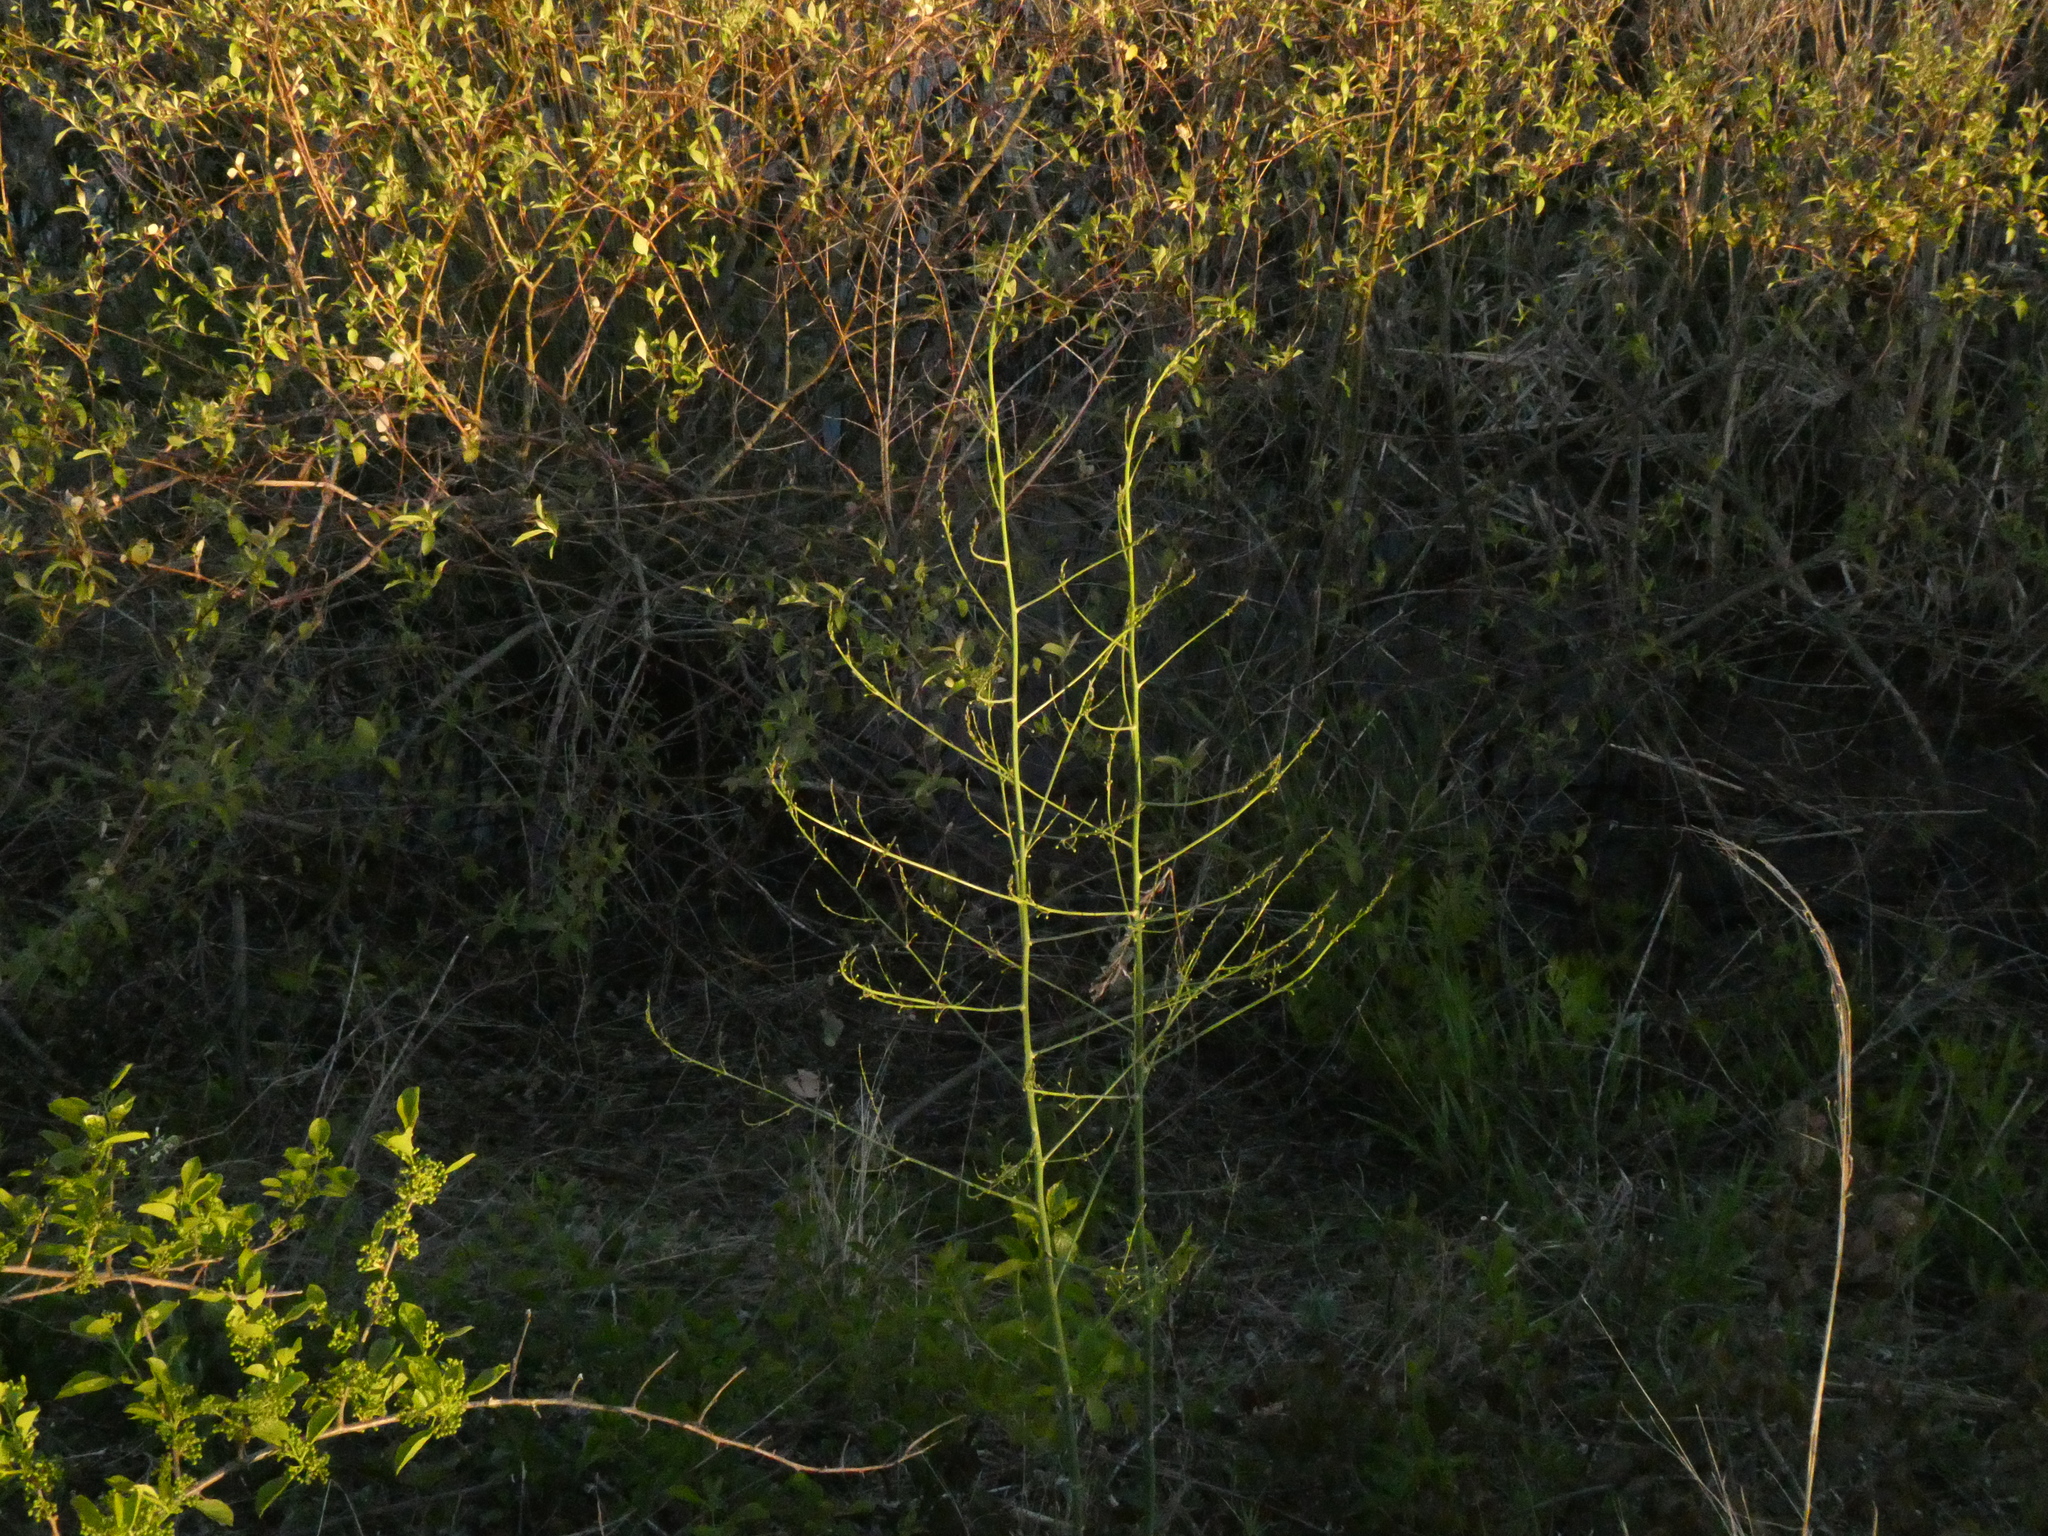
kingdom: Plantae
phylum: Tracheophyta
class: Liliopsida
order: Asparagales
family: Asparagaceae
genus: Asparagus
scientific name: Asparagus officinalis
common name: Garden asparagus
